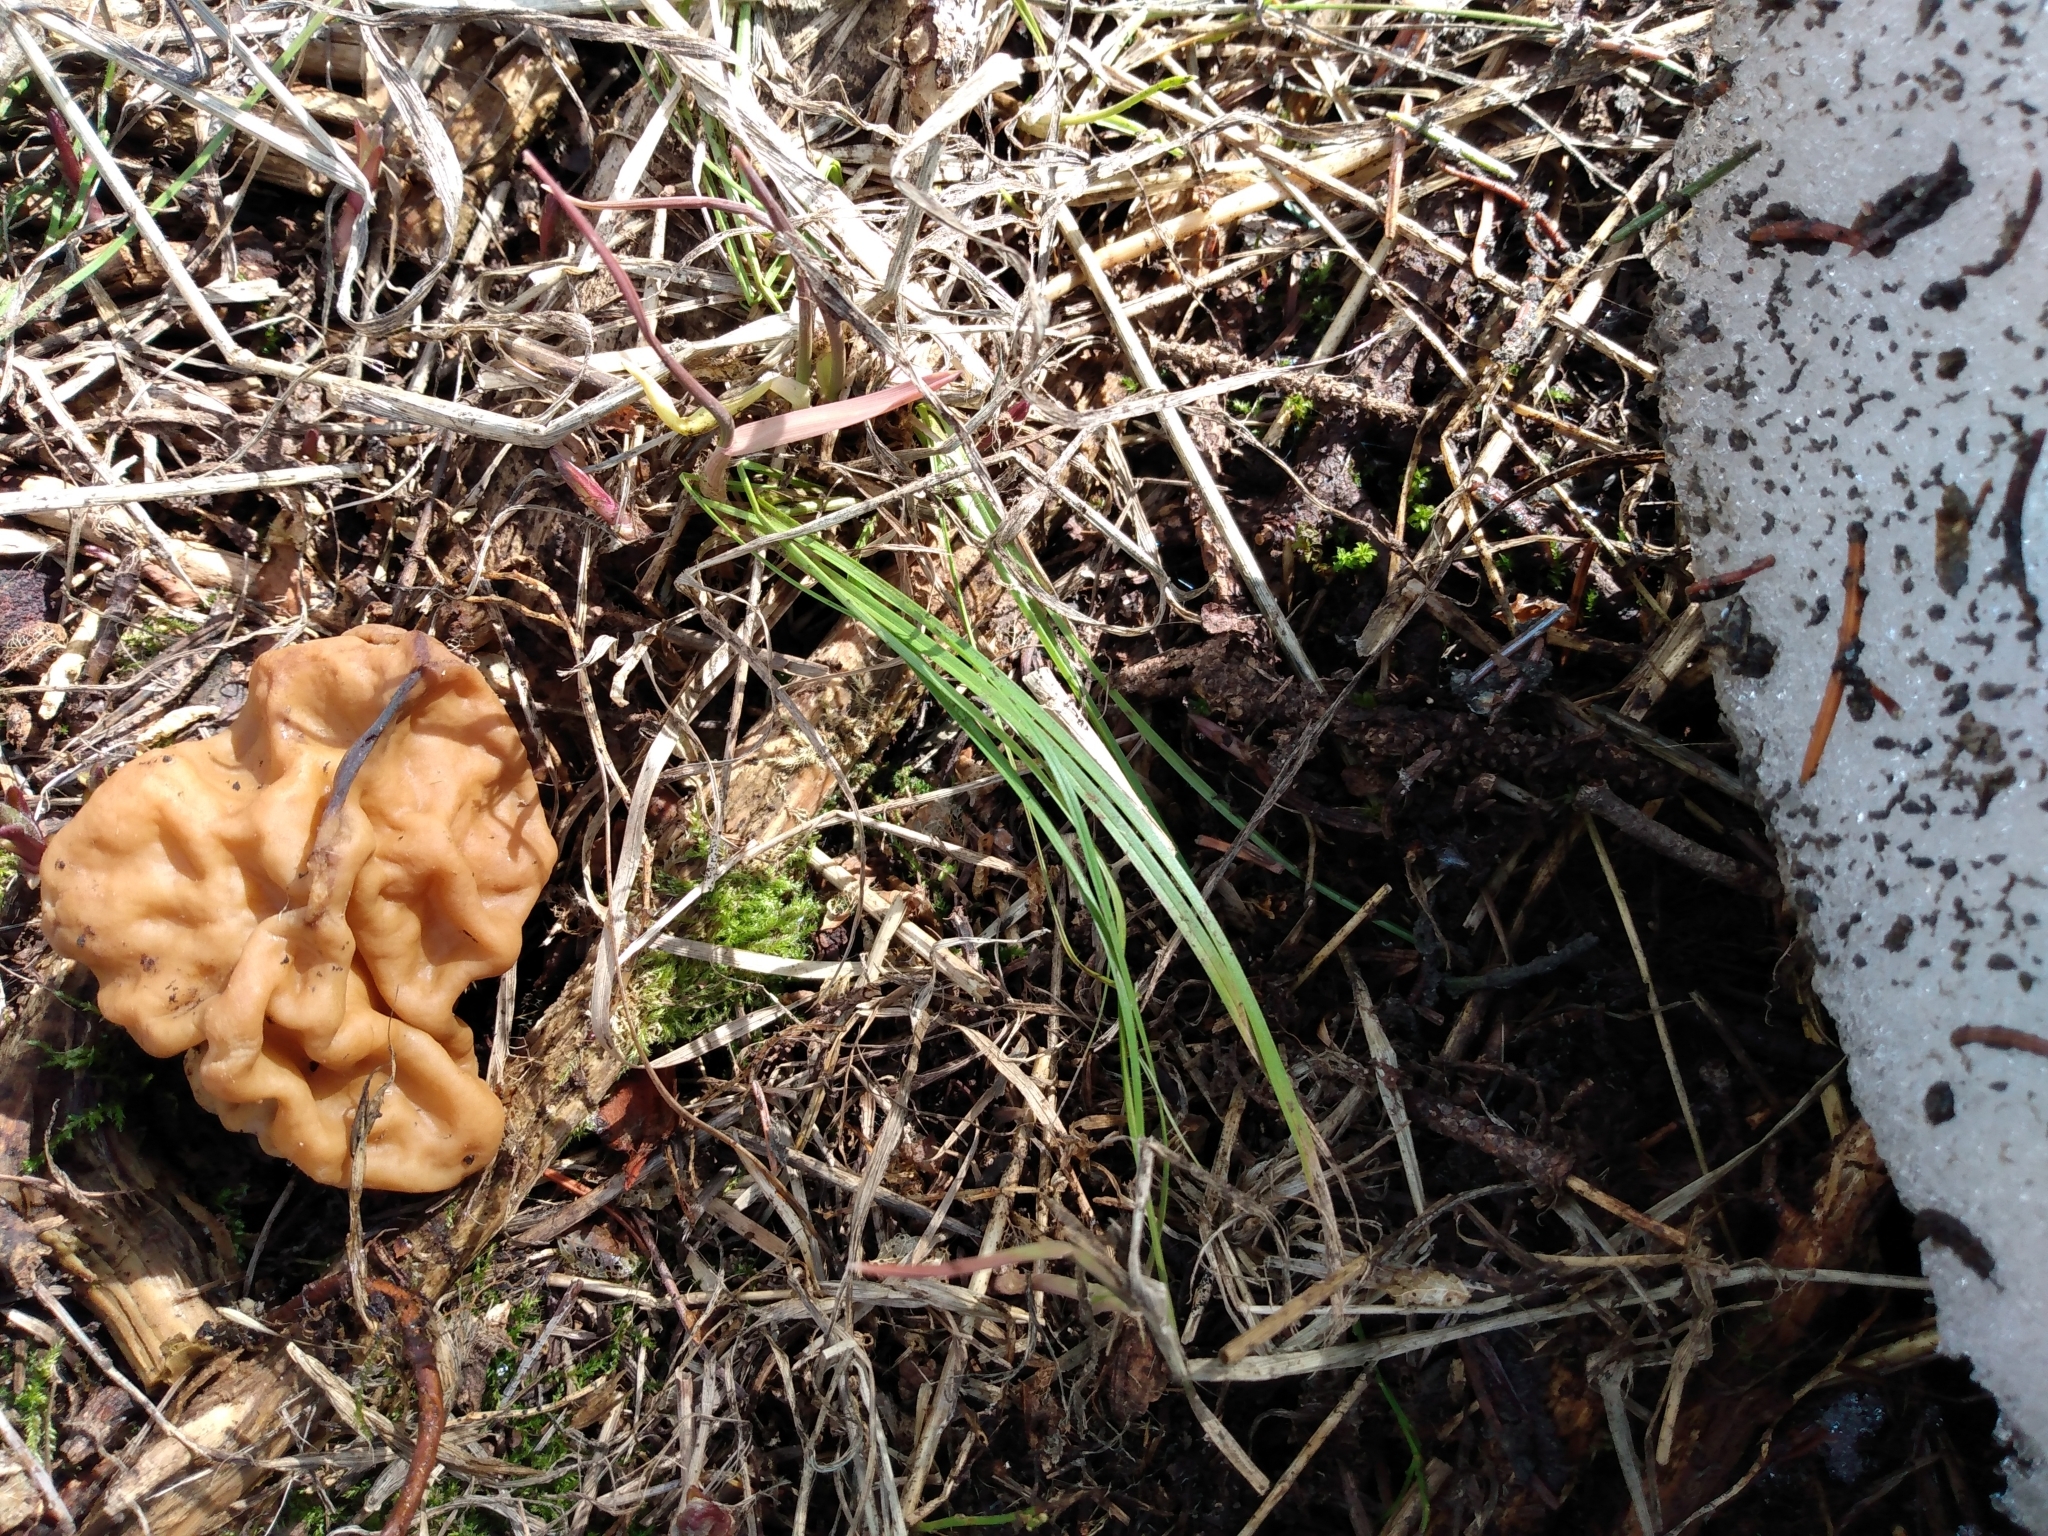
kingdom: Fungi
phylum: Ascomycota
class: Pezizomycetes
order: Pezizales
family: Discinaceae
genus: Discina
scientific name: Discina montana
